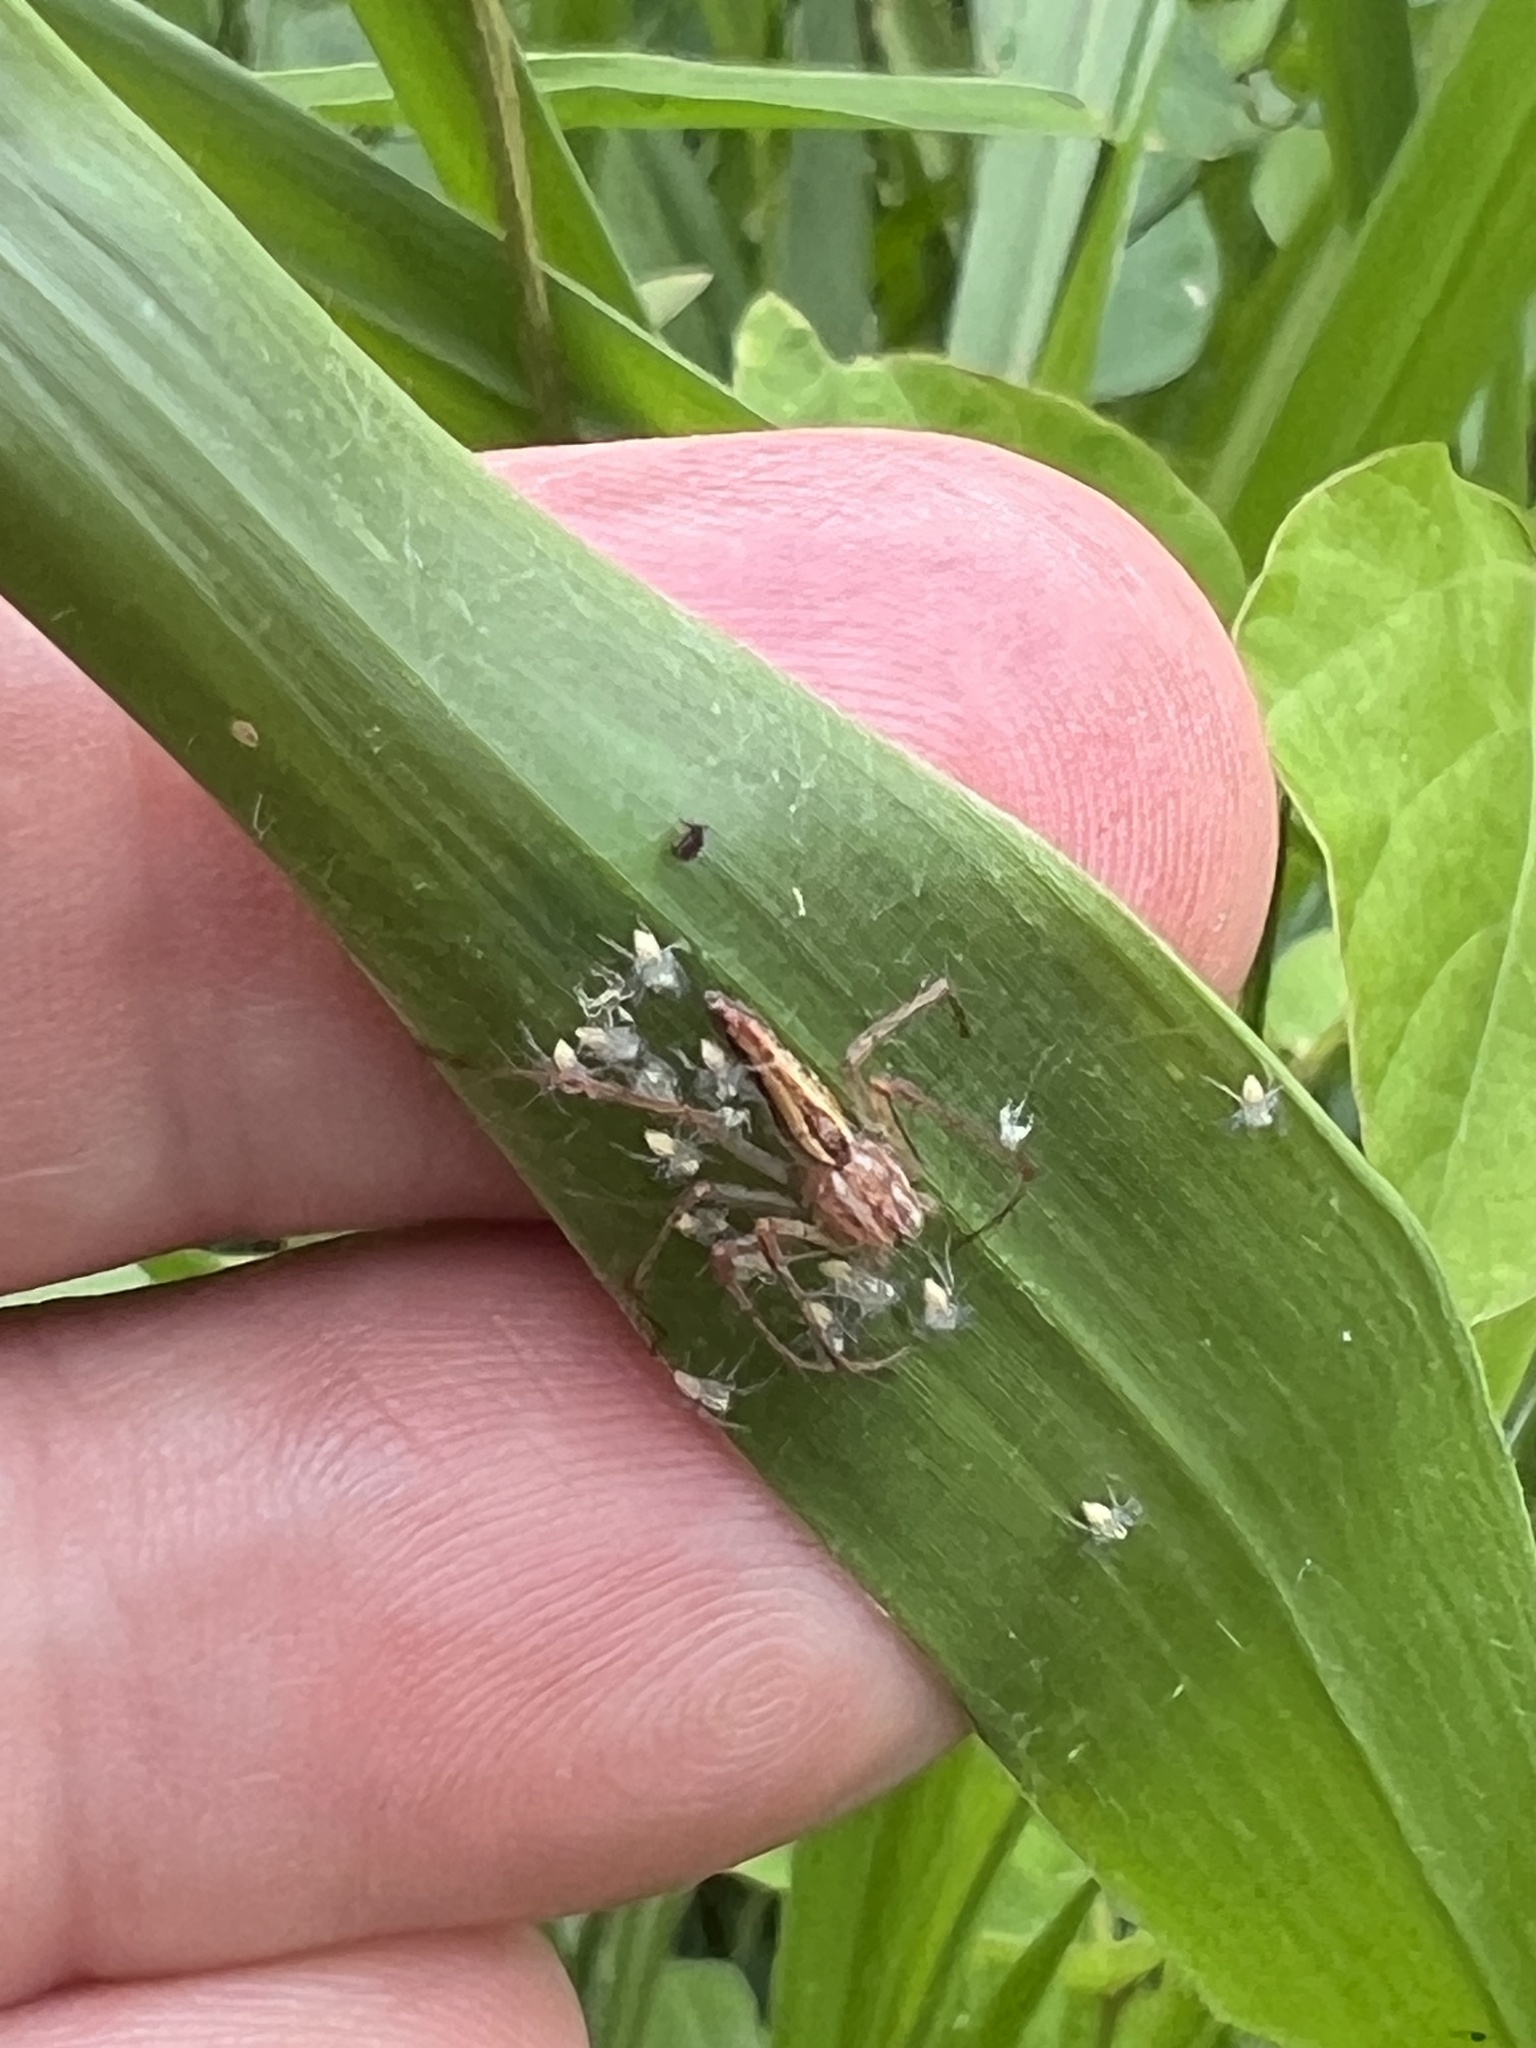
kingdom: Animalia
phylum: Arthropoda
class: Arachnida
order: Araneae
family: Oxyopidae
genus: Oxyopes
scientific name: Oxyopes macilentus
